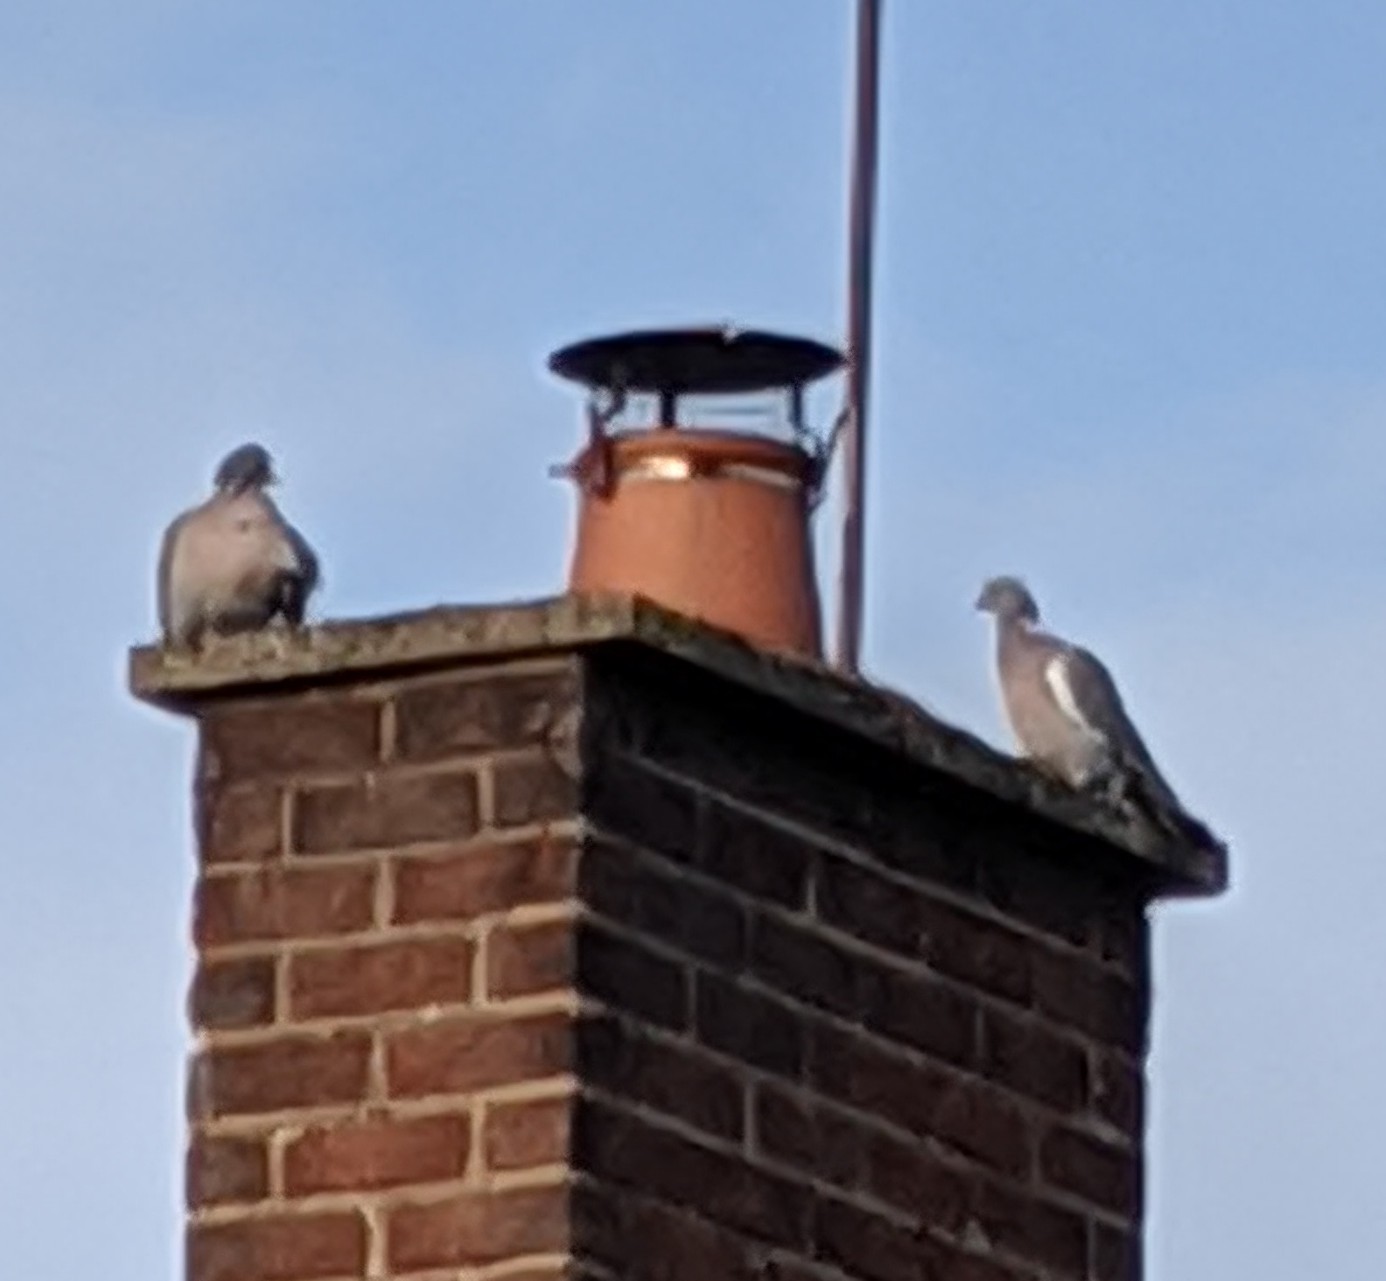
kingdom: Animalia
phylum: Chordata
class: Aves
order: Columbiformes
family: Columbidae
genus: Columba
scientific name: Columba palumbus
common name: Common wood pigeon
